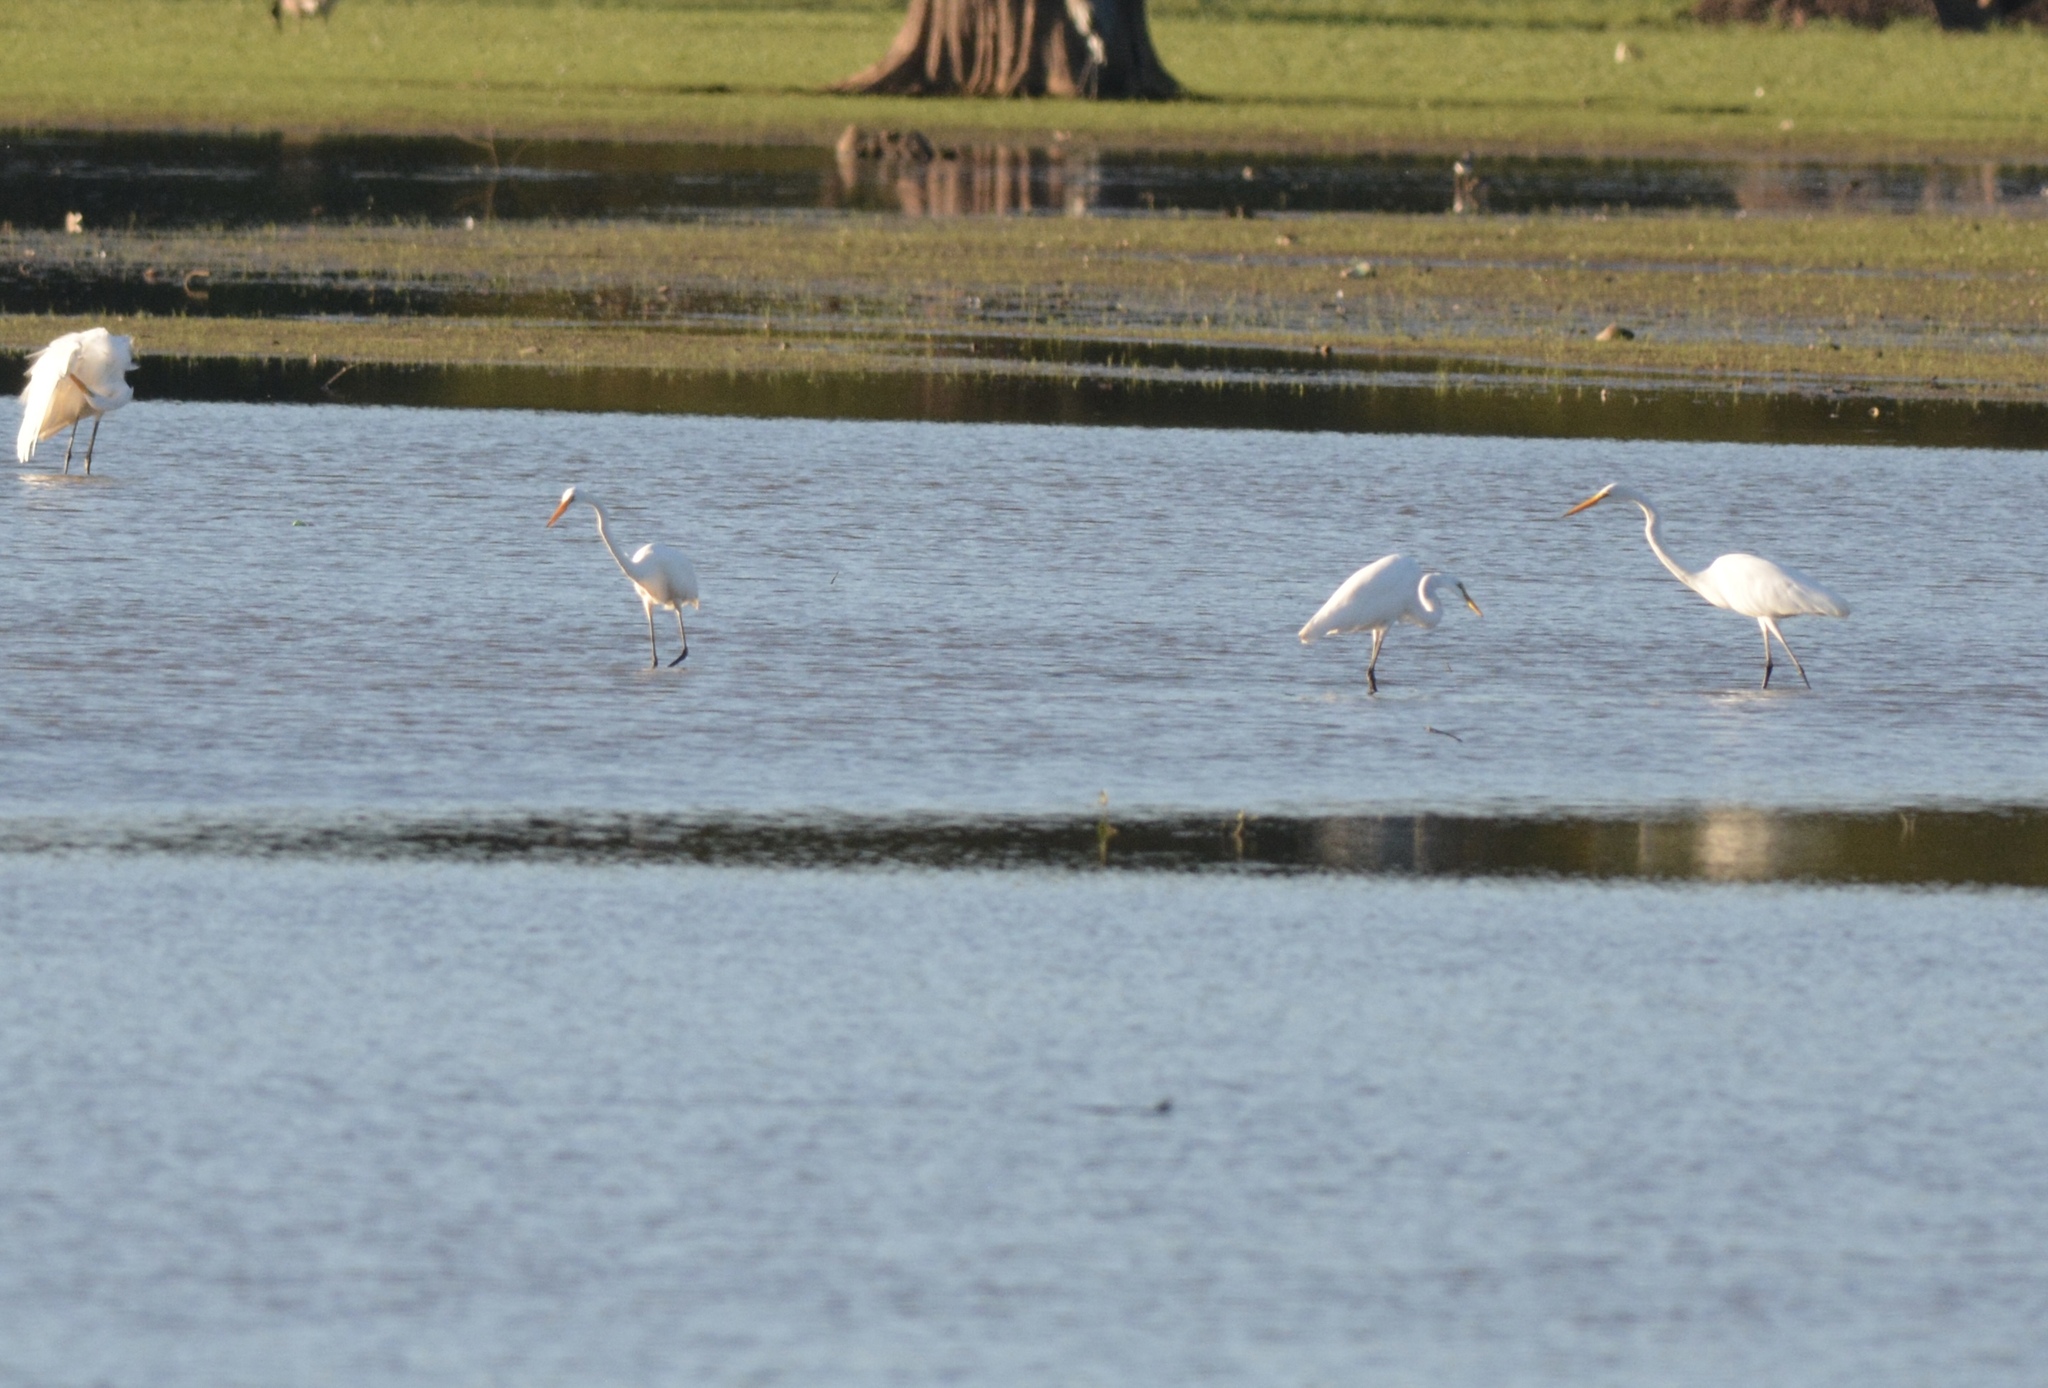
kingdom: Animalia
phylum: Chordata
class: Aves
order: Pelecaniformes
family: Ardeidae
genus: Ardea
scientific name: Ardea alba
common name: Great egret
